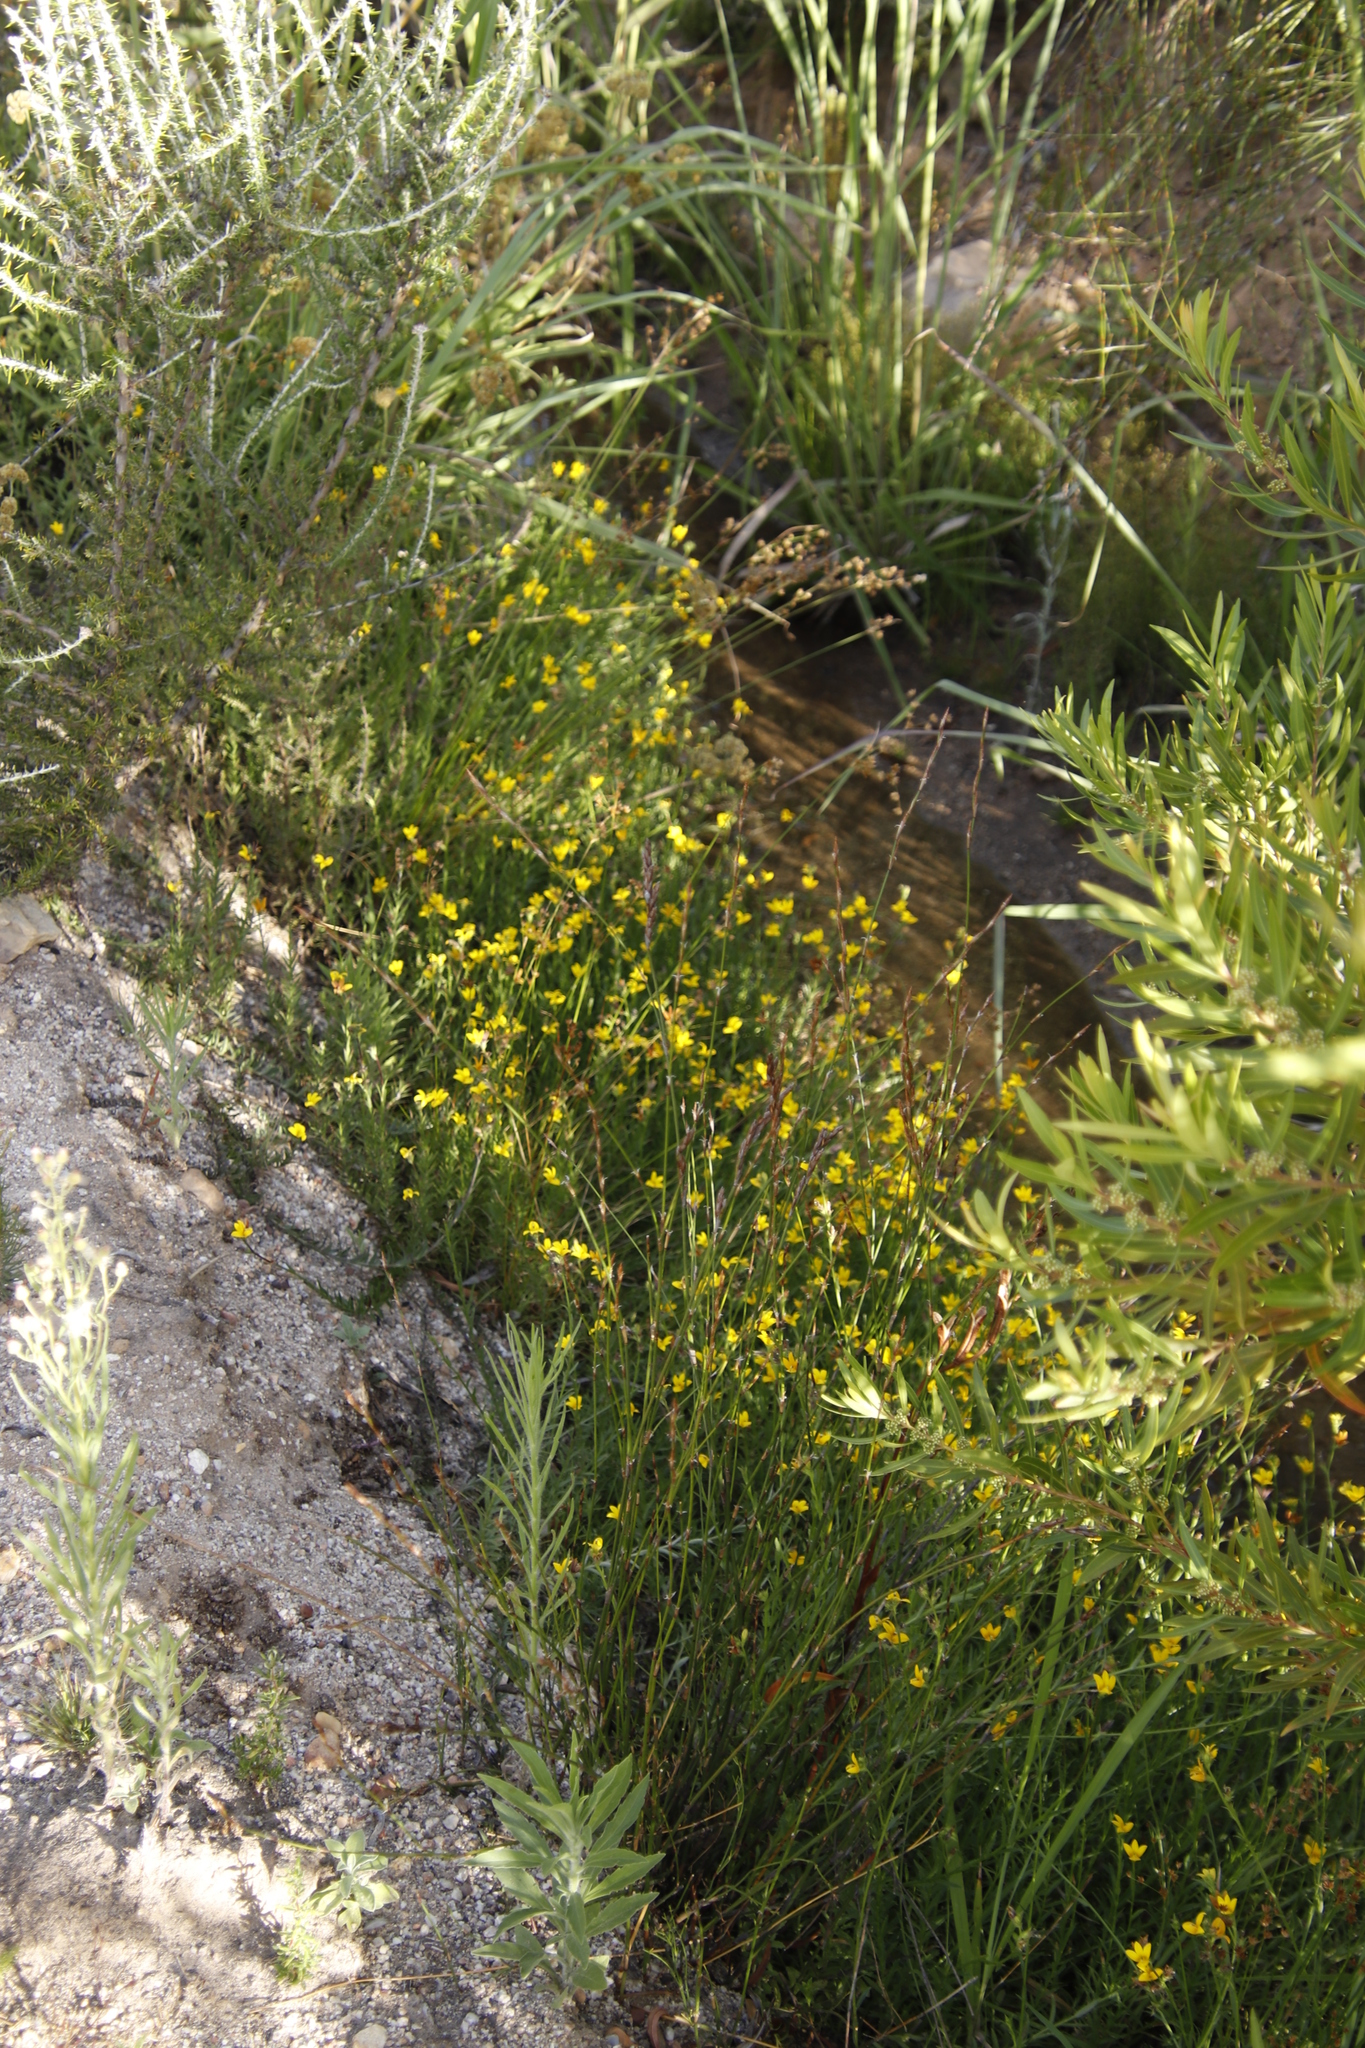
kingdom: Plantae
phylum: Tracheophyta
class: Magnoliopsida
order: Asterales
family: Campanulaceae
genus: Monopsis
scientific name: Monopsis lutea
